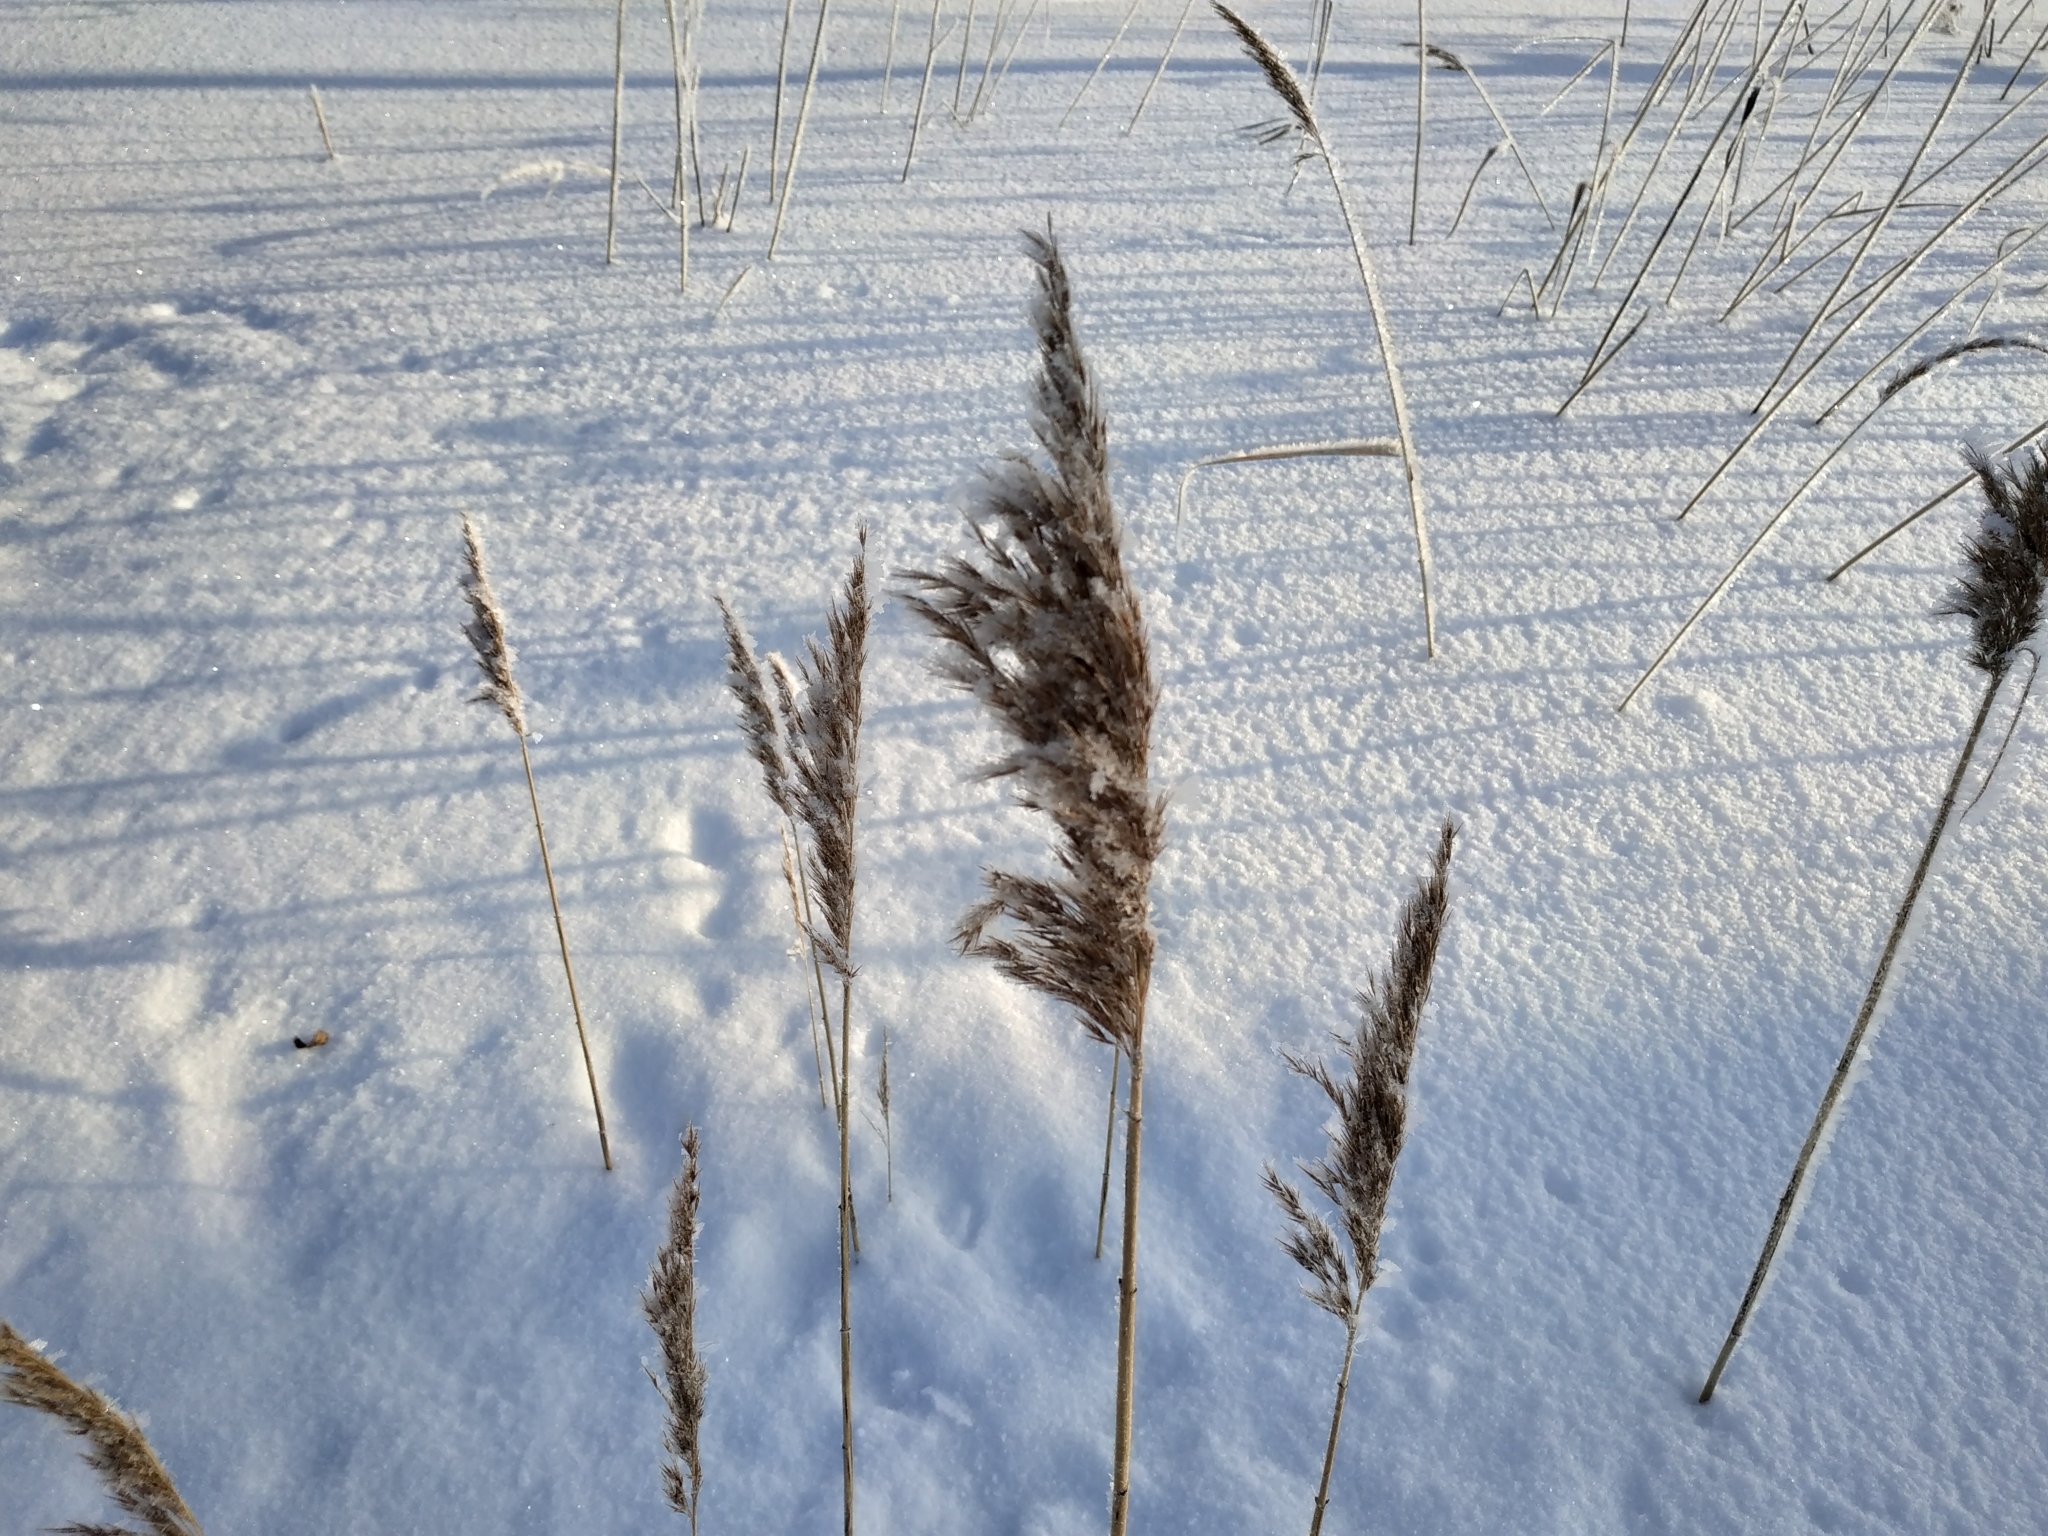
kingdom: Plantae
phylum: Tracheophyta
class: Liliopsida
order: Poales
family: Poaceae
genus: Phragmites
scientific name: Phragmites australis
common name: Common reed
